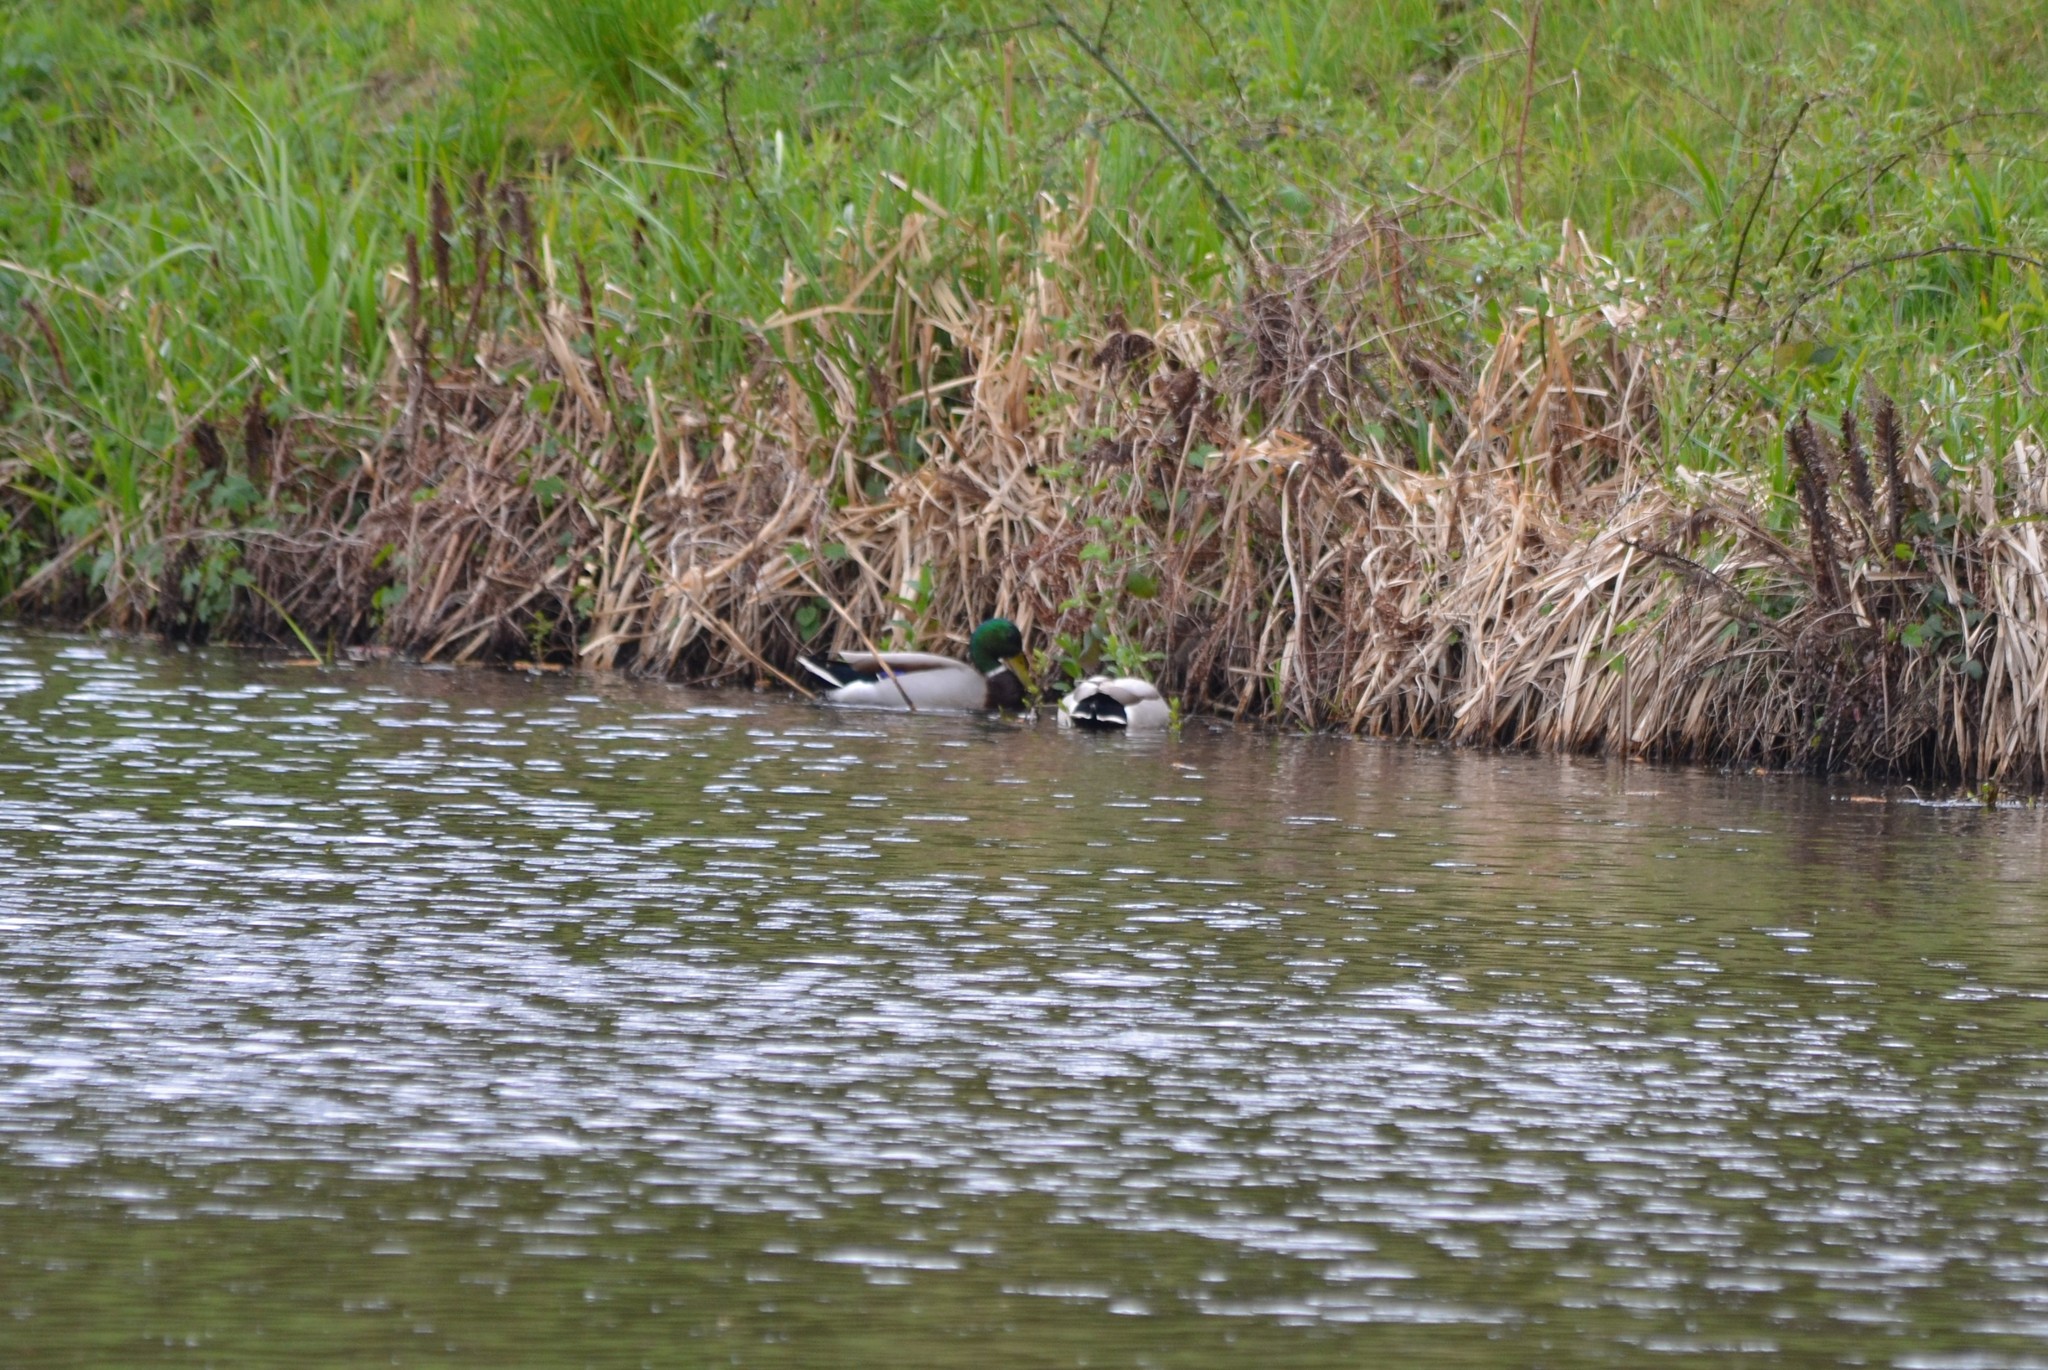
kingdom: Animalia
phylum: Chordata
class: Aves
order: Anseriformes
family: Anatidae
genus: Anas
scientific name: Anas platyrhynchos
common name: Mallard
